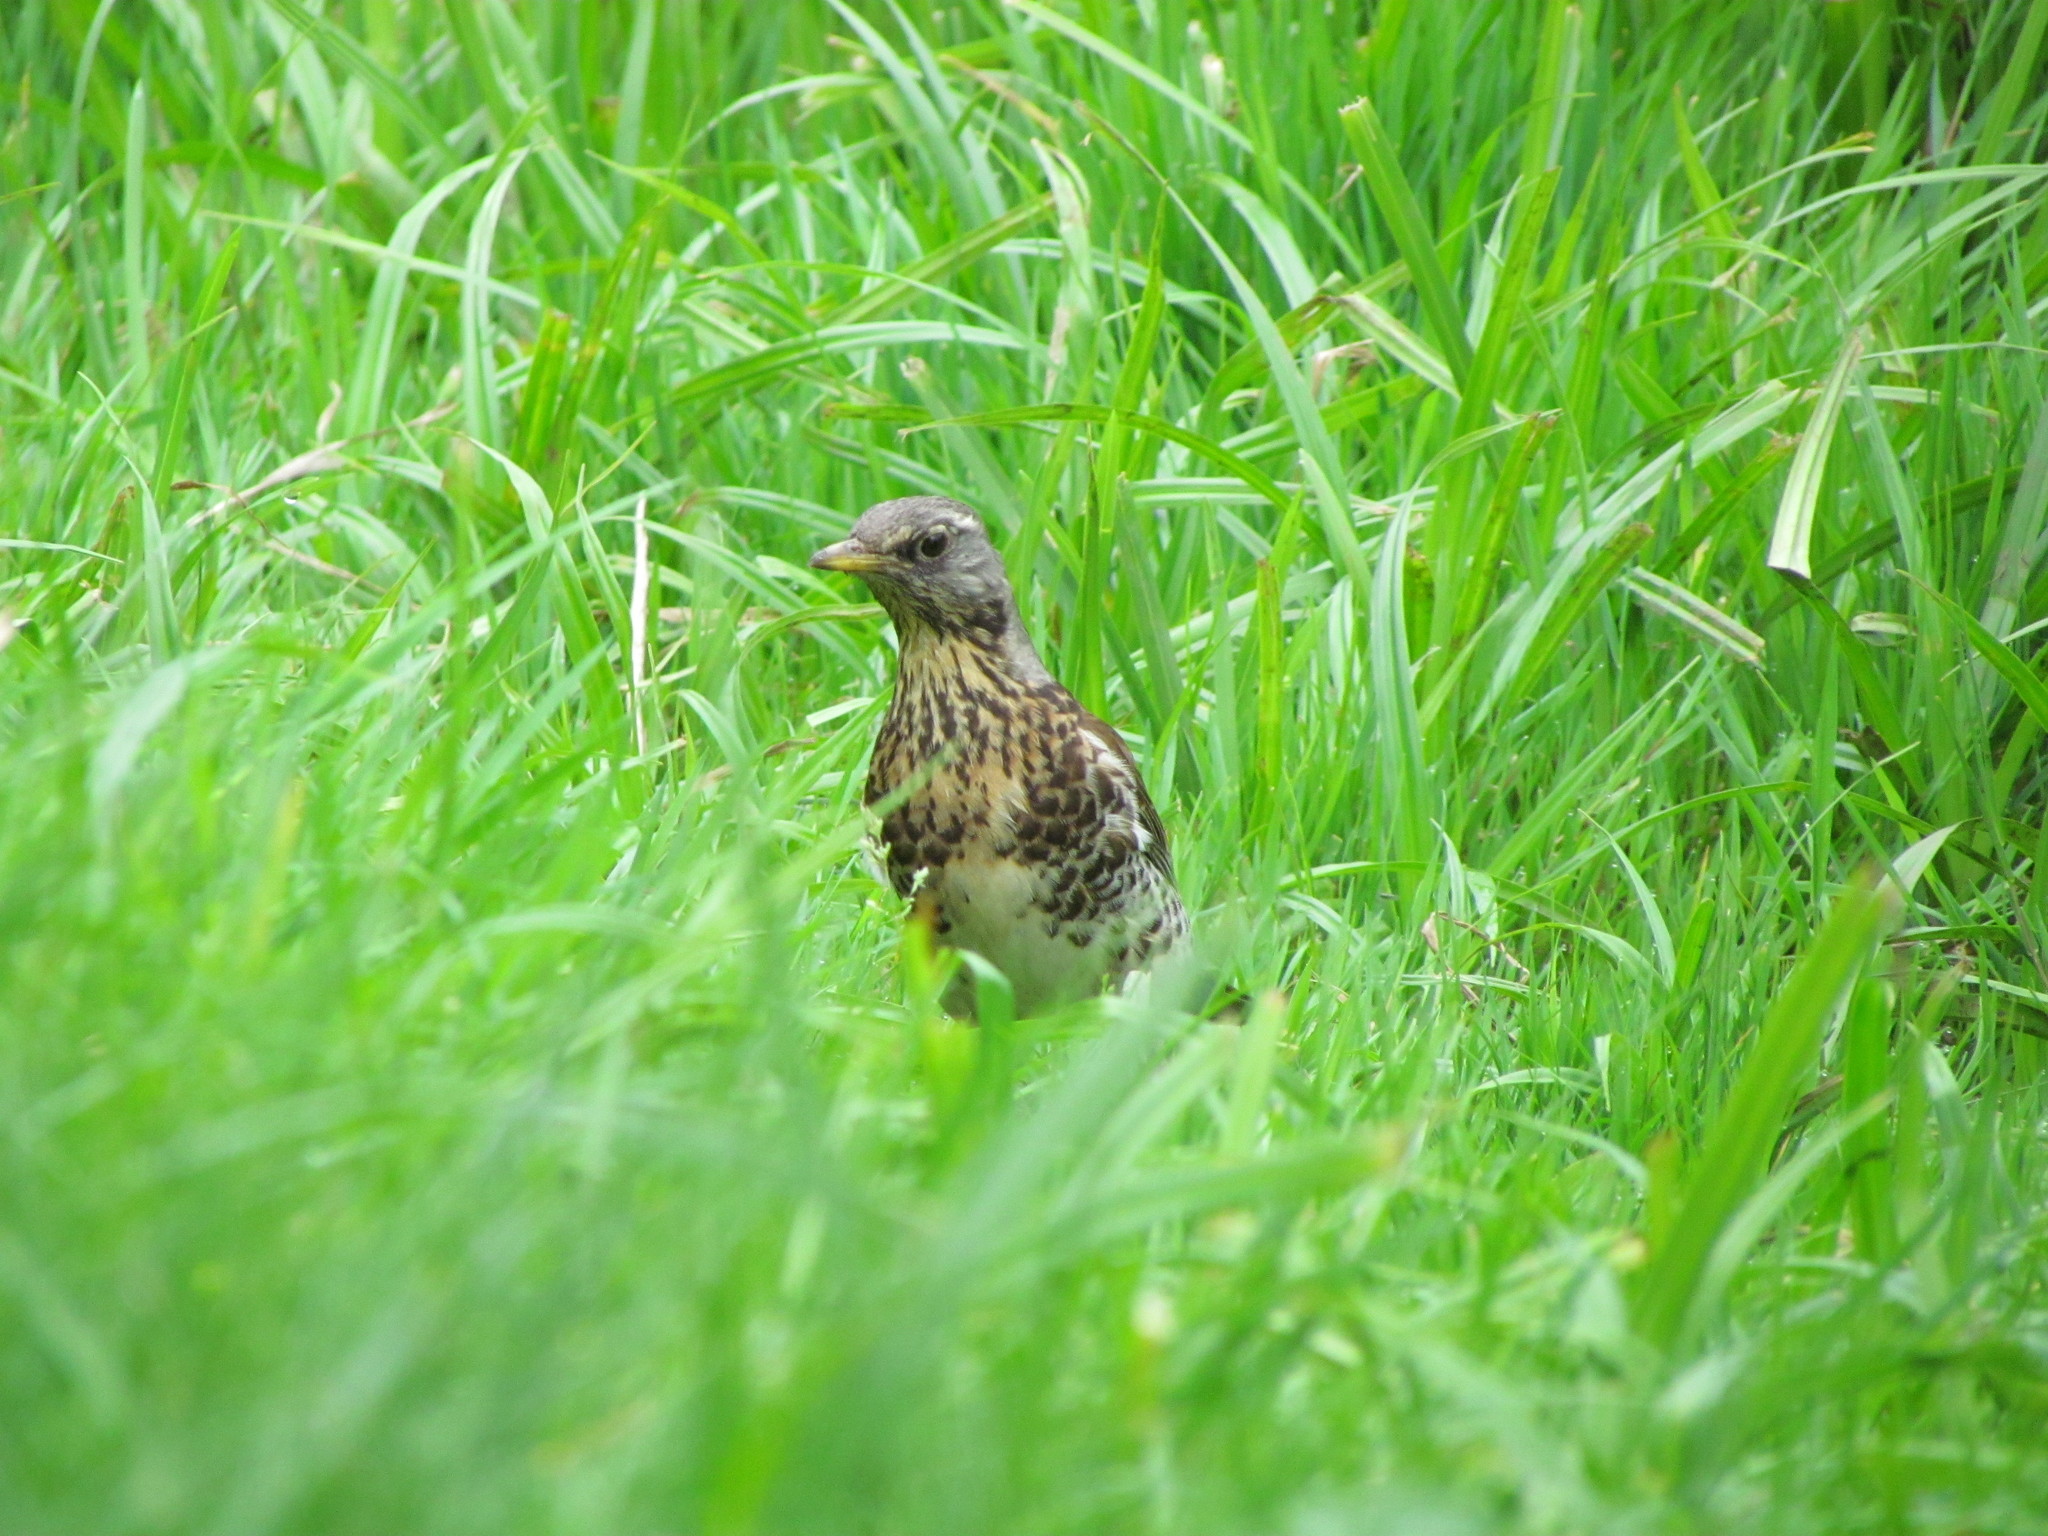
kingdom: Animalia
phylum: Chordata
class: Aves
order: Passeriformes
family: Turdidae
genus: Turdus
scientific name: Turdus pilaris
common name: Fieldfare
